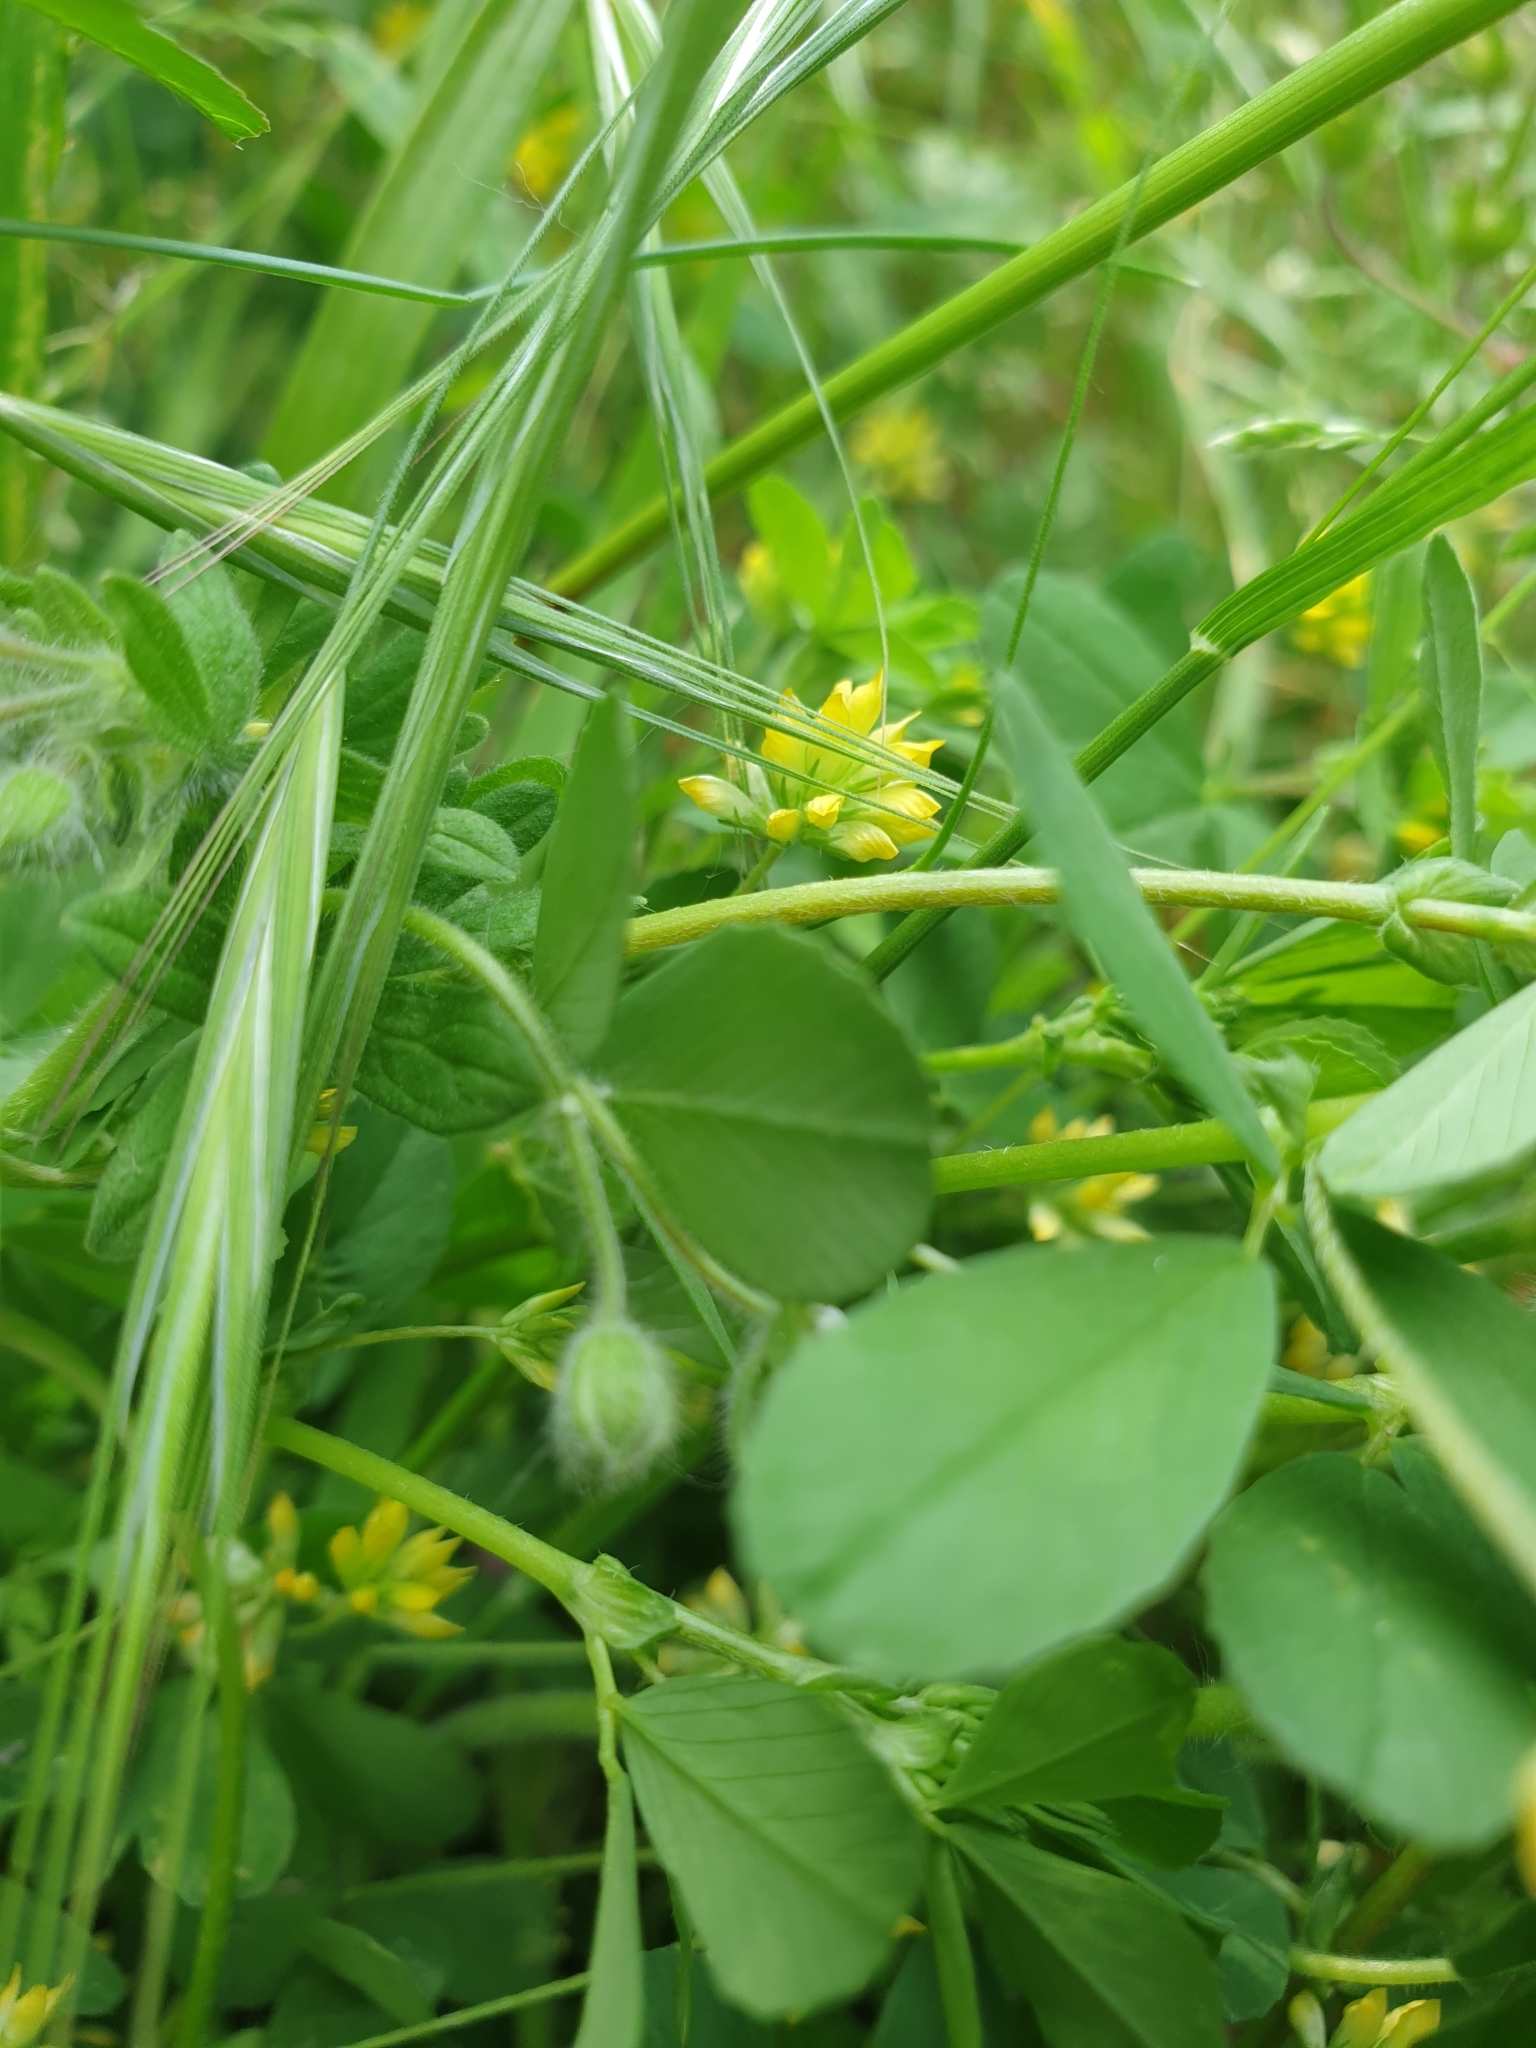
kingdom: Plantae
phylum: Tracheophyta
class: Magnoliopsida
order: Fabales
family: Fabaceae
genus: Trifolium
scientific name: Trifolium dubium
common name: Suckling clover
